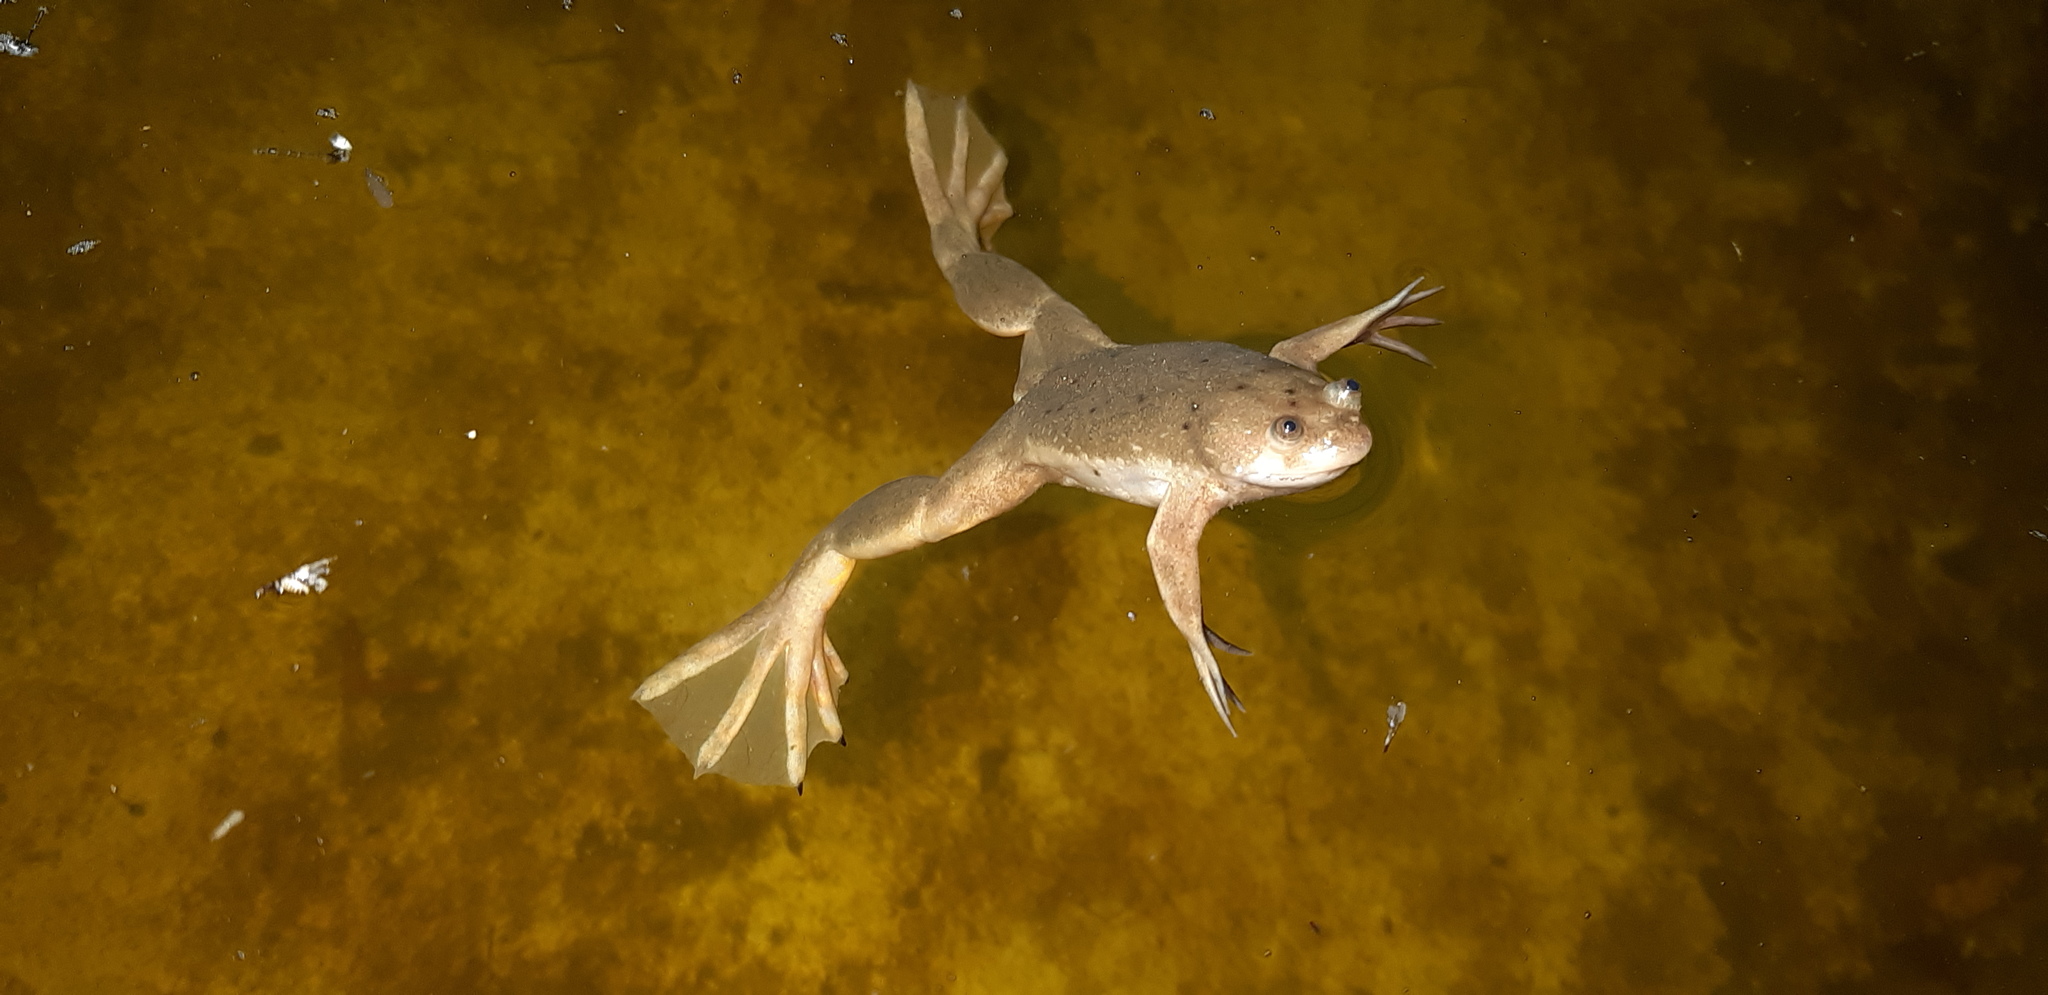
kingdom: Animalia
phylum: Chordata
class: Amphibia
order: Anura
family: Pipidae
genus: Xenopus
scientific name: Xenopus laevis
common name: African clawed frog
